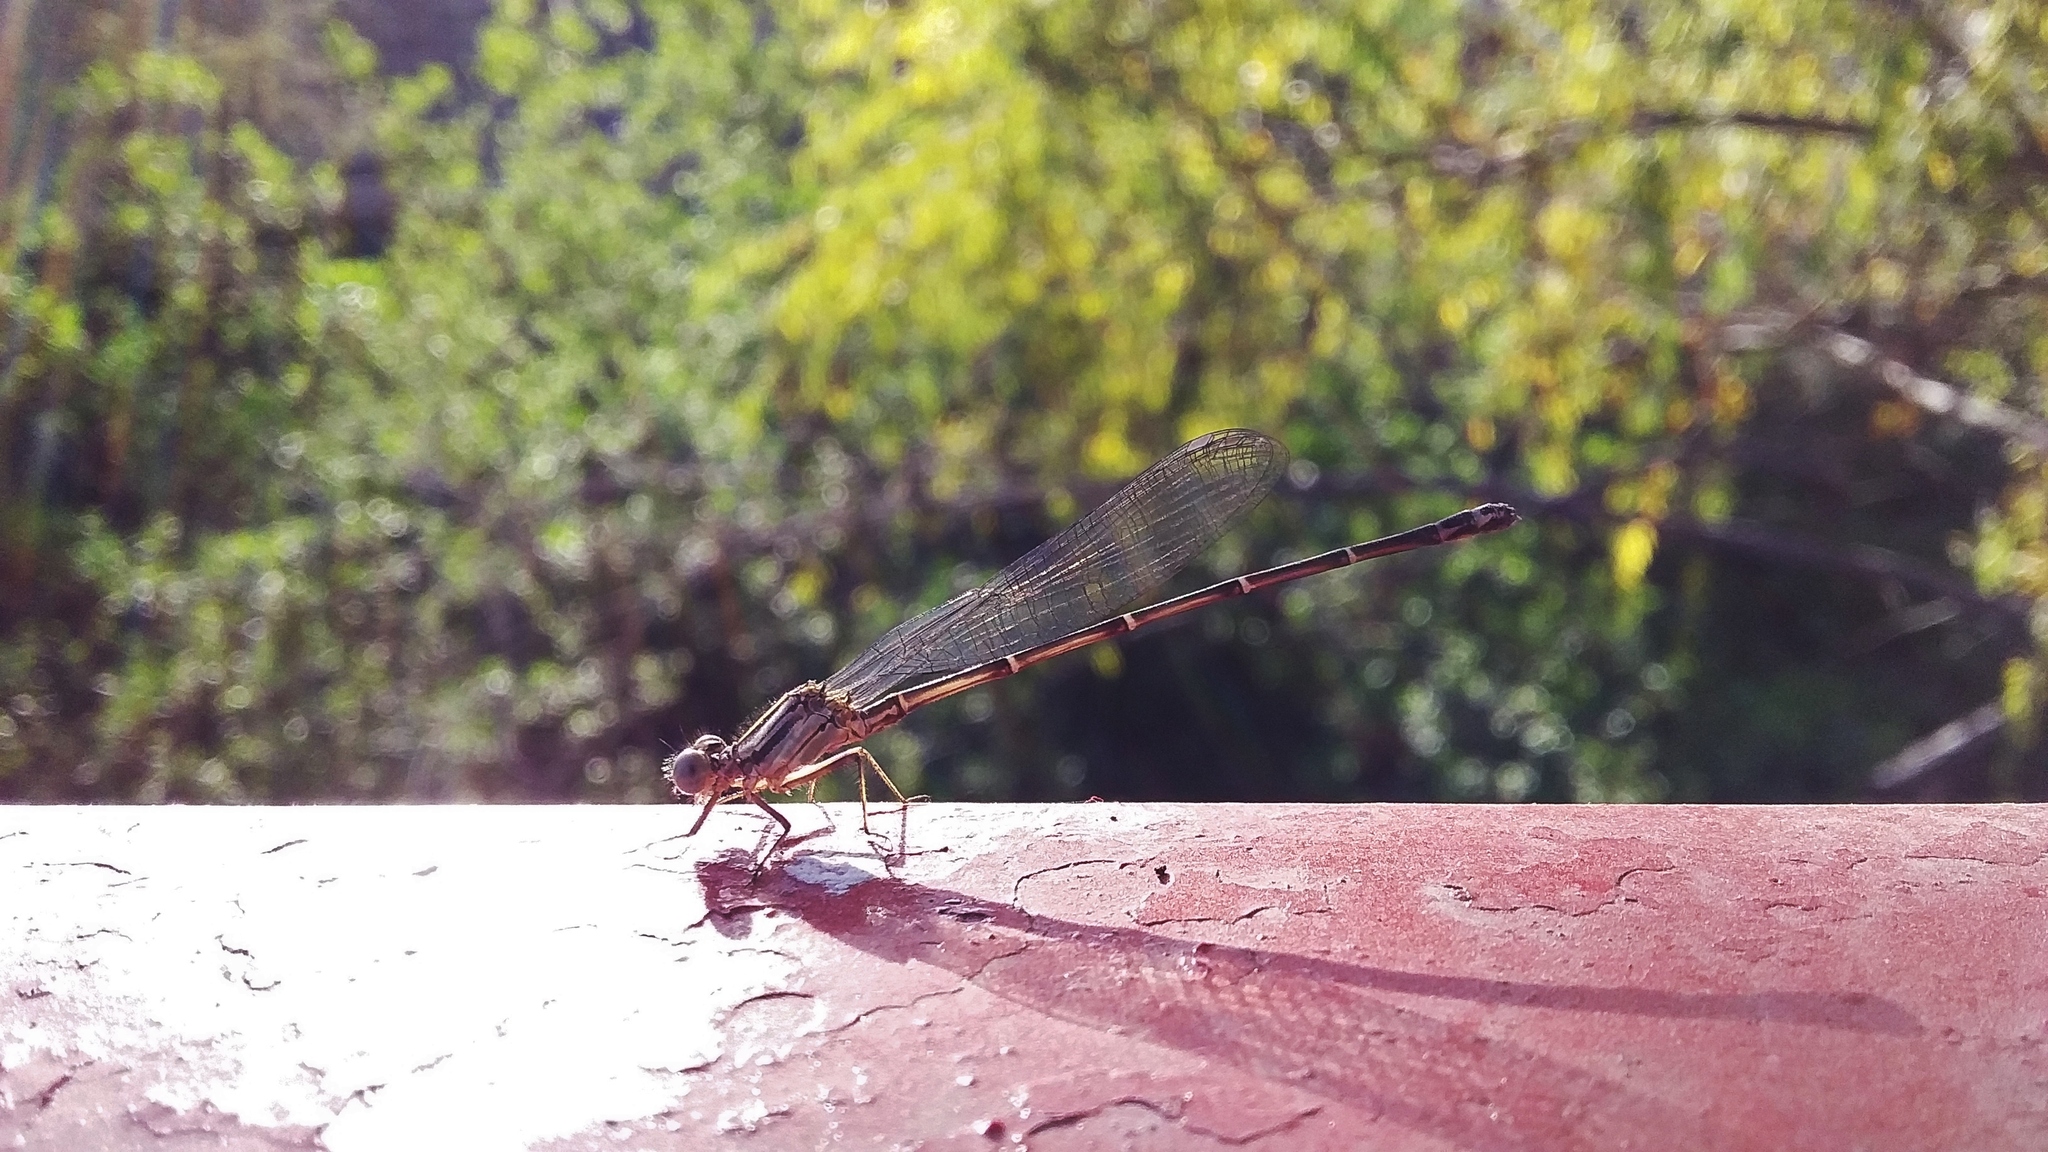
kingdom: Animalia
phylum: Arthropoda
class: Insecta
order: Odonata
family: Coenagrionidae
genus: Argia
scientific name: Argia translata
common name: Dusky dancer
